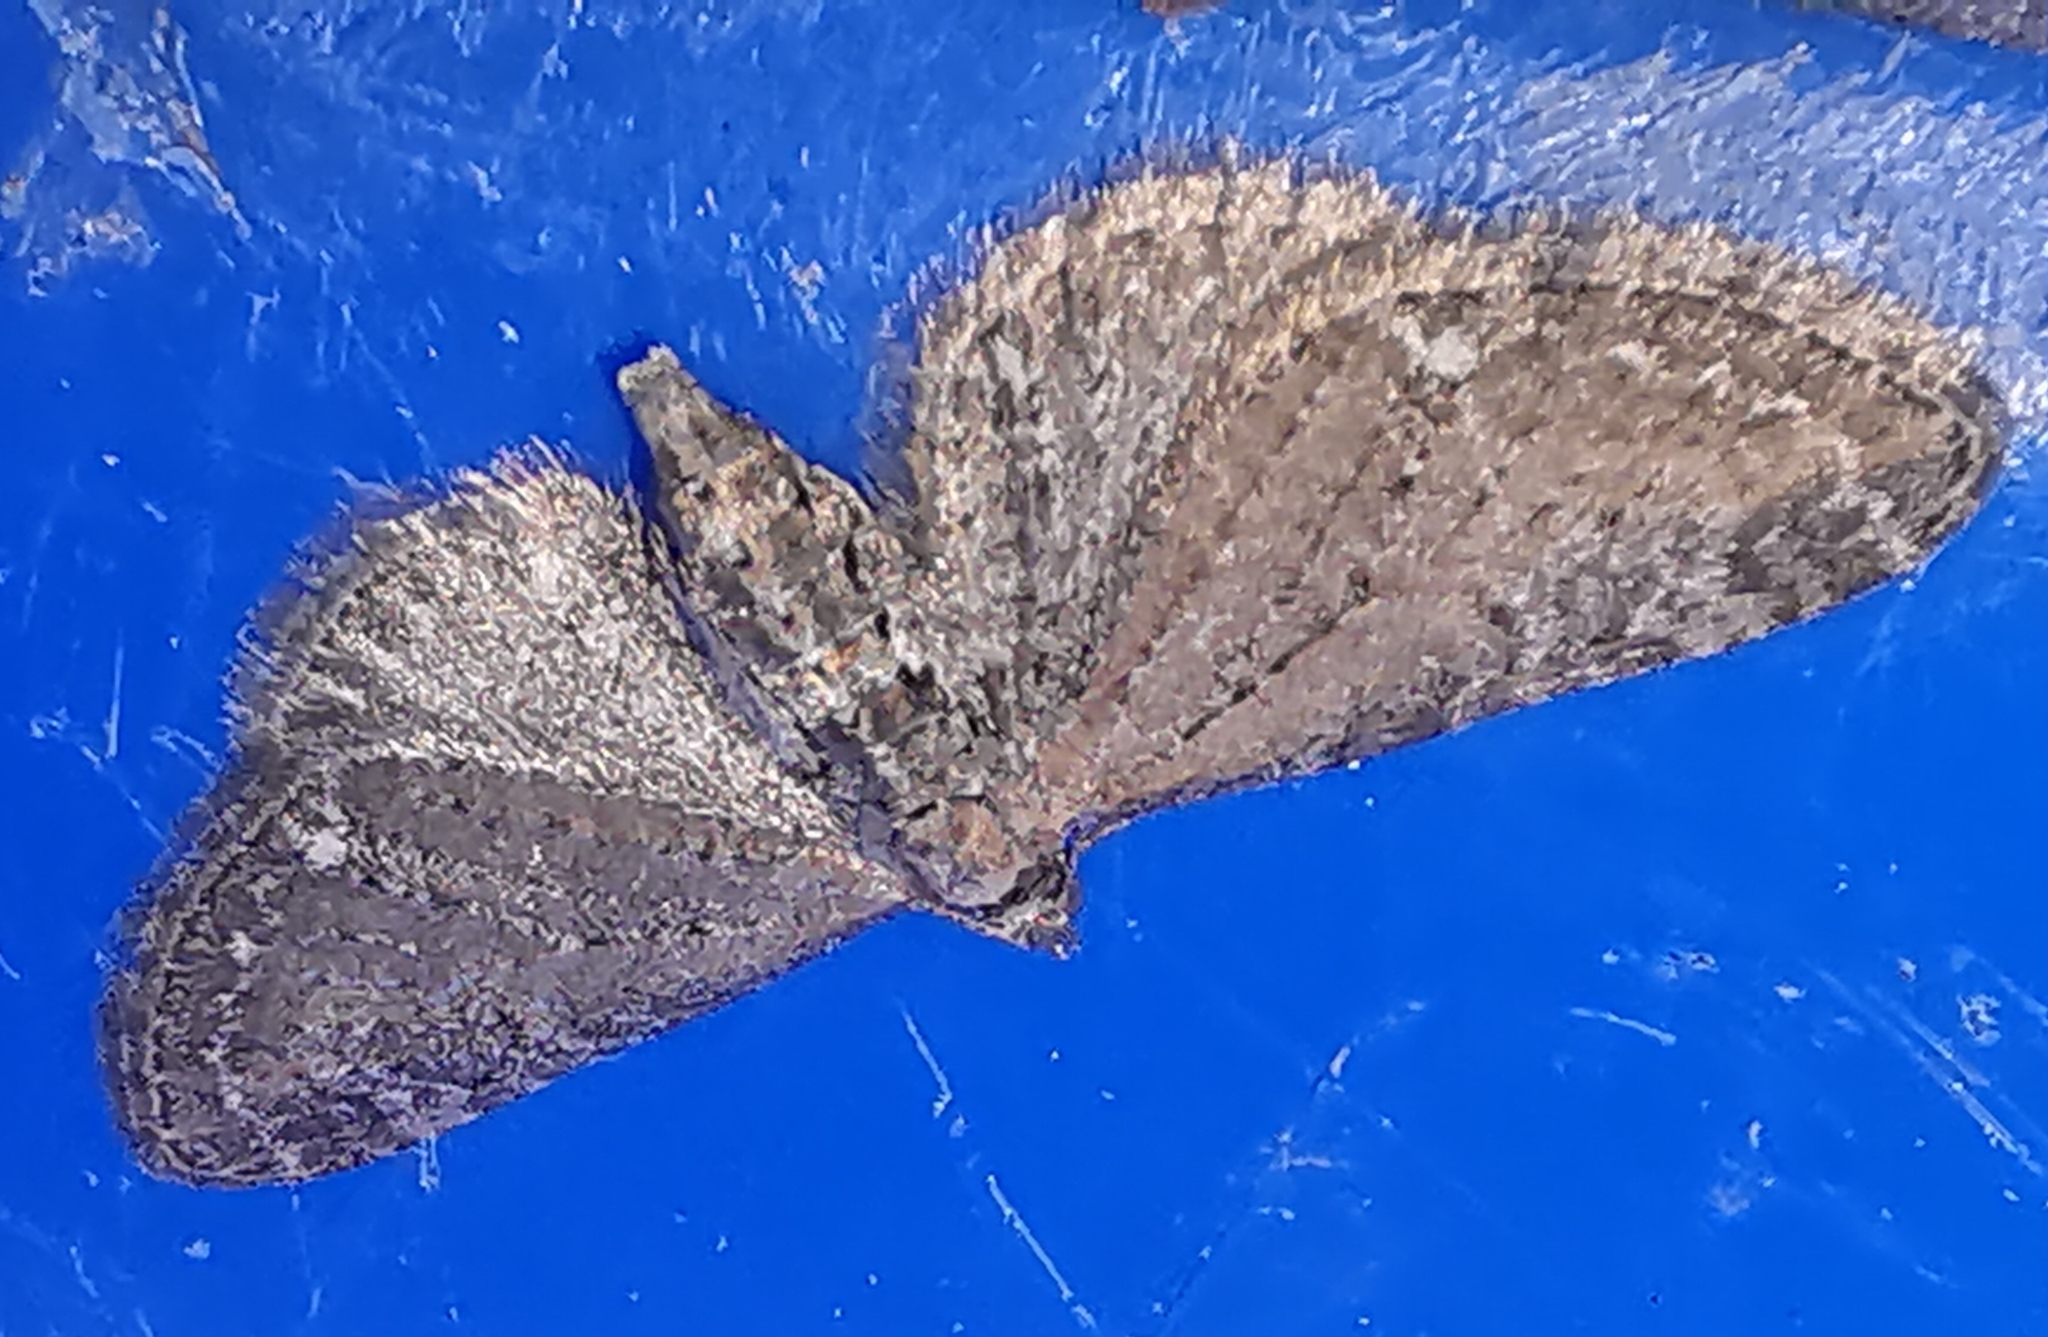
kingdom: Animalia
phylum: Arthropoda
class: Insecta
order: Lepidoptera
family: Geometridae
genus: Eupithecia
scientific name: Eupithecia vulgata
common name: Common pug
